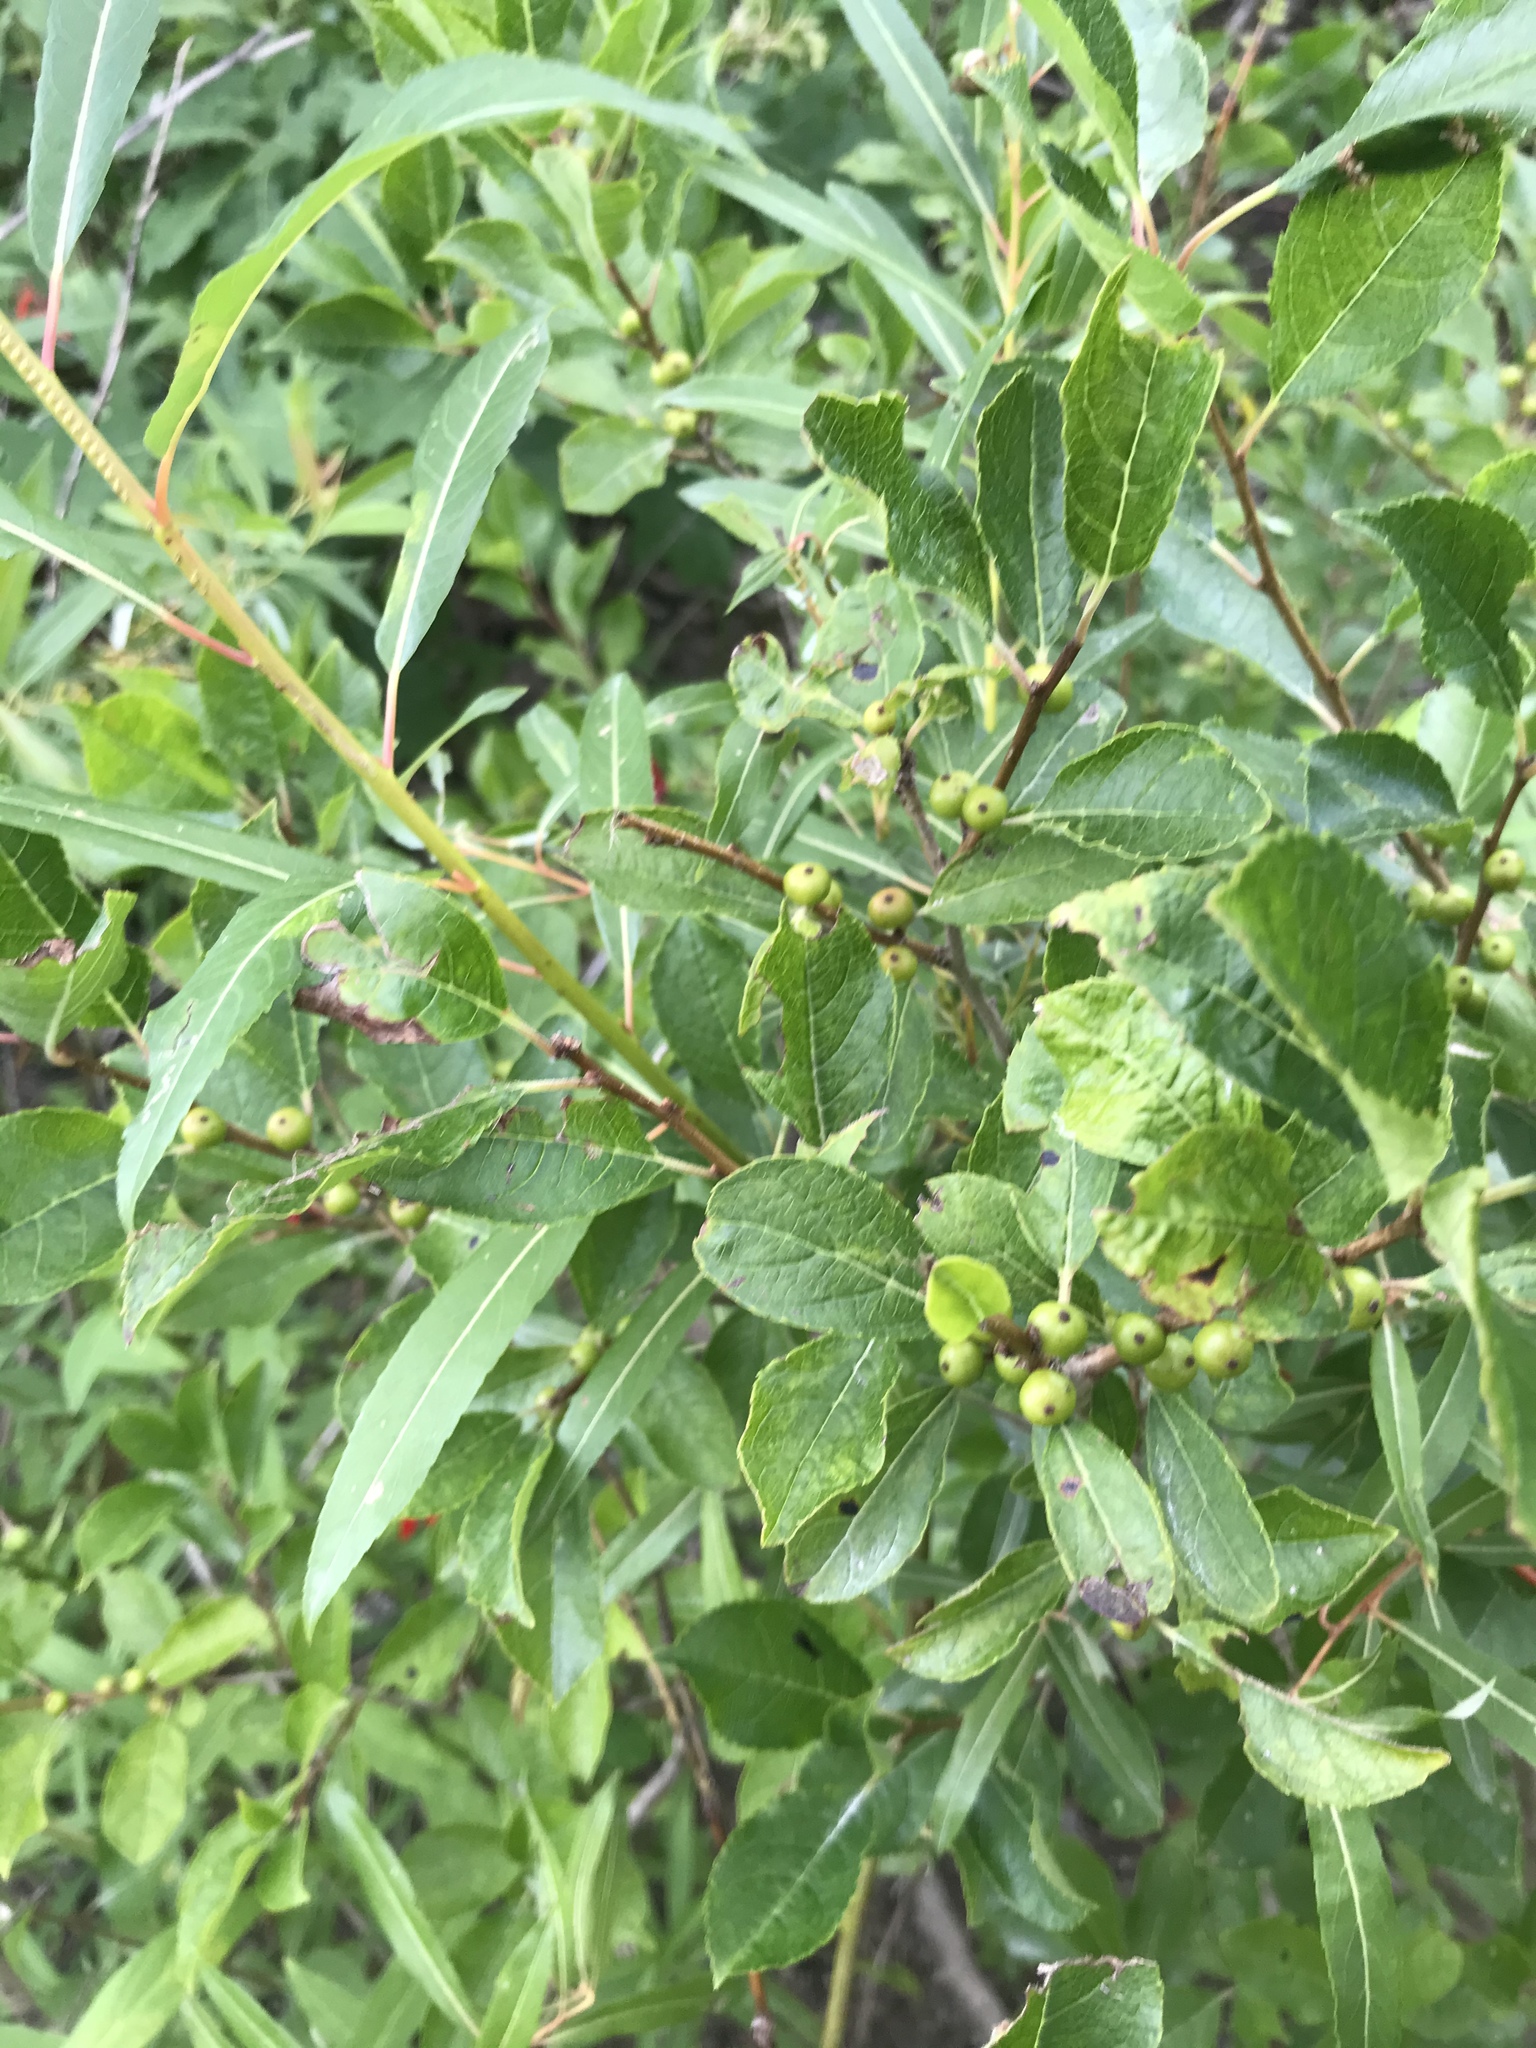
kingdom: Plantae
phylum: Tracheophyta
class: Magnoliopsida
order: Aquifoliales
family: Aquifoliaceae
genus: Ilex
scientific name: Ilex verticillata
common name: Virginia winterberry
